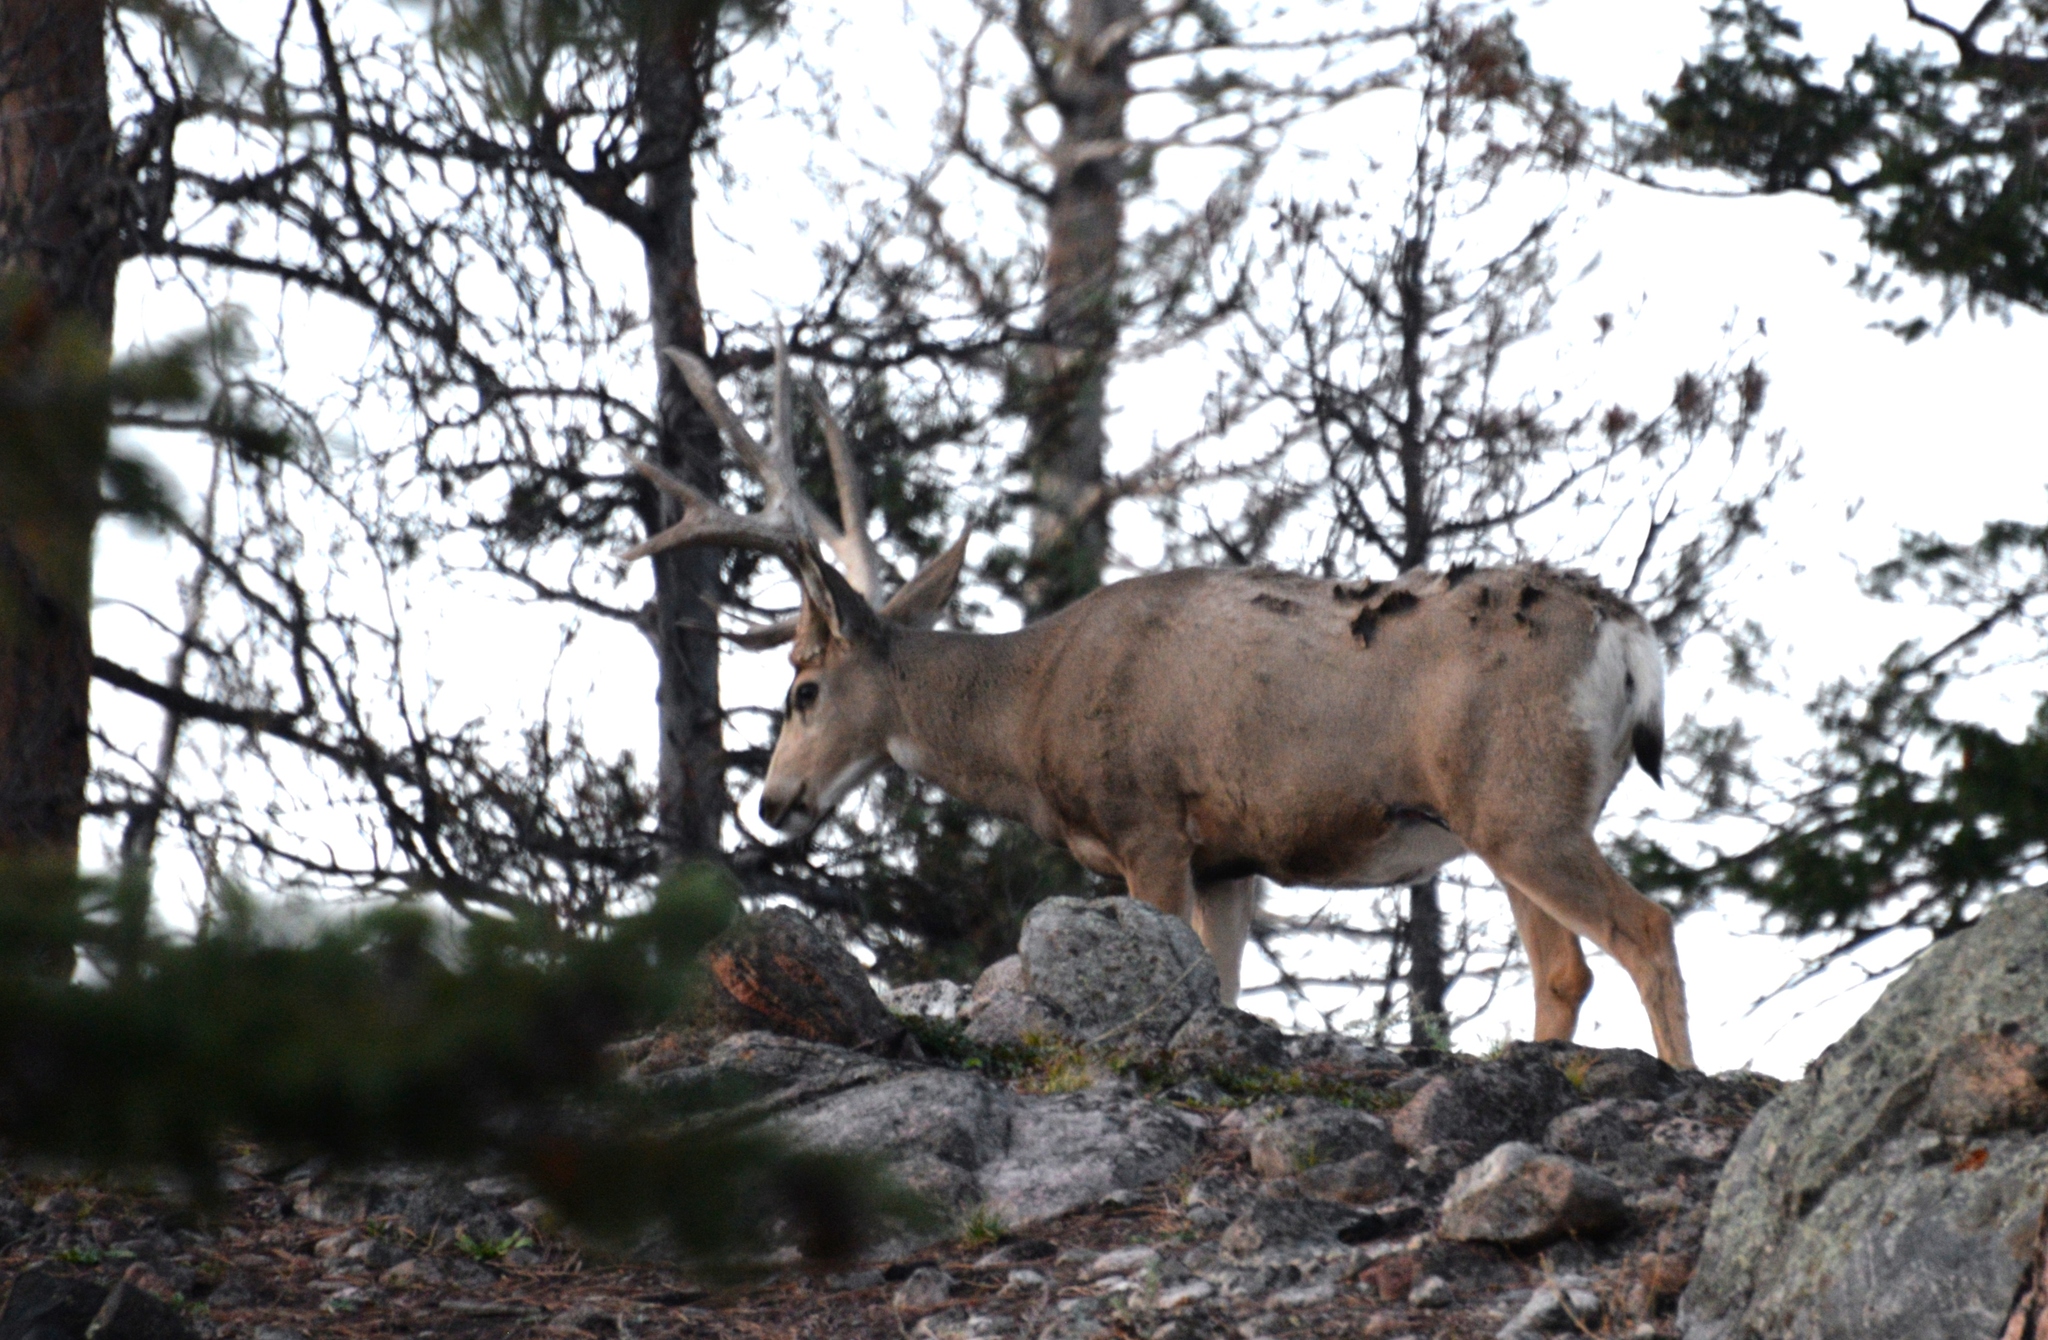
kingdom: Animalia
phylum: Chordata
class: Mammalia
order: Artiodactyla
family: Cervidae
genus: Odocoileus
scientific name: Odocoileus hemionus
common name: Mule deer
